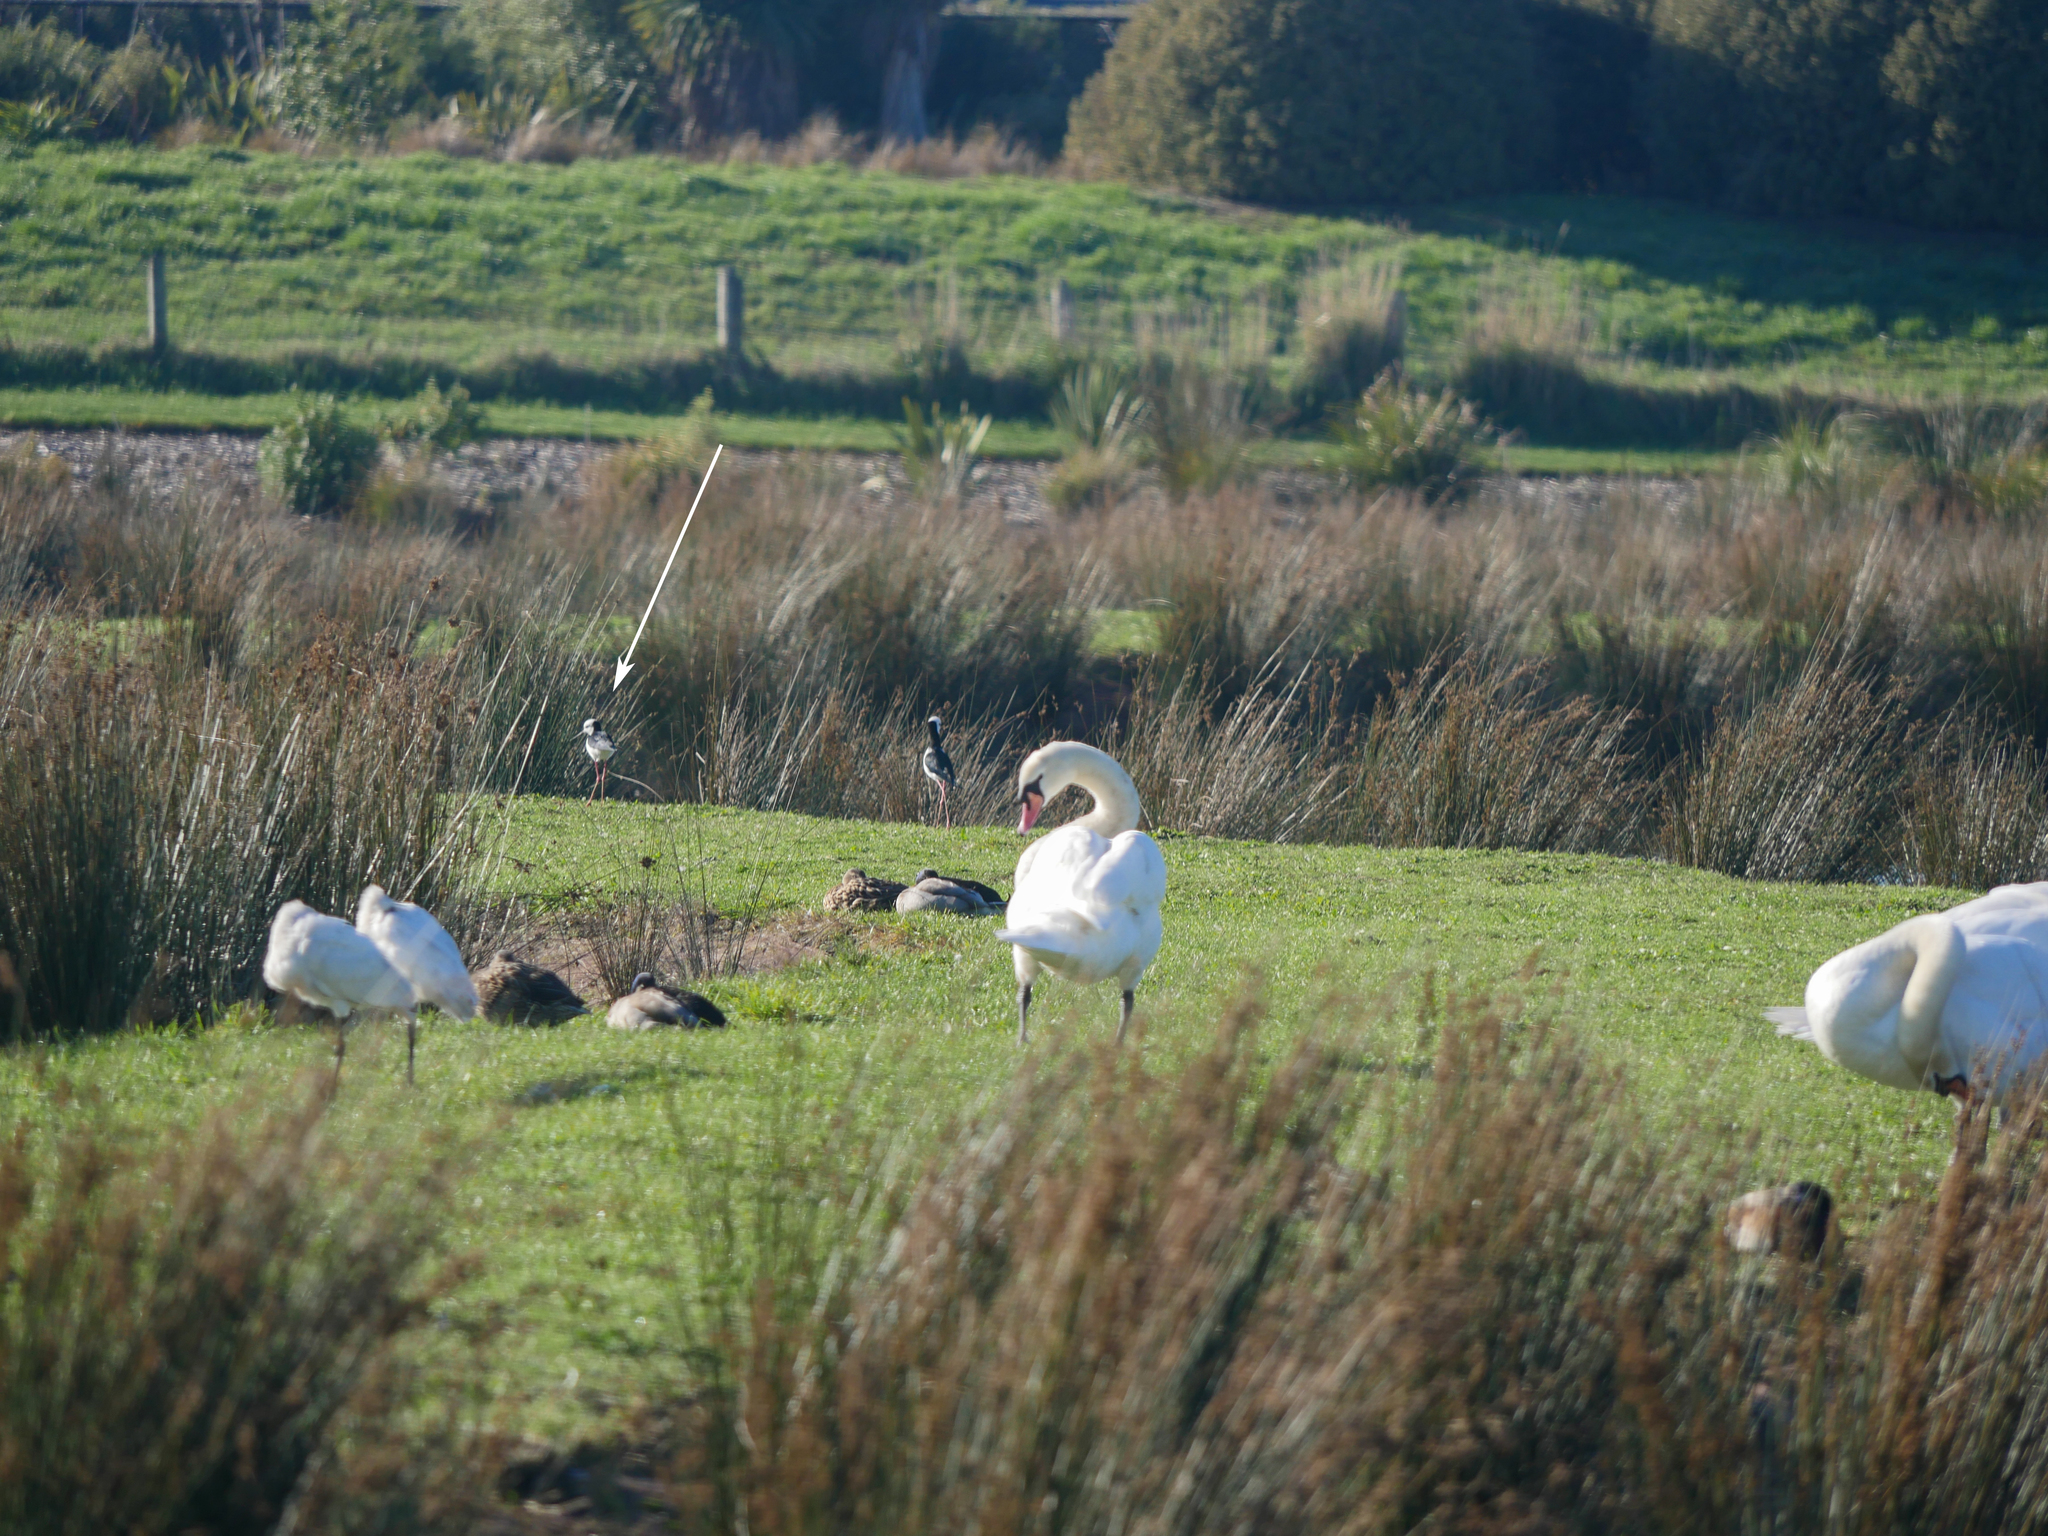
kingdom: Animalia
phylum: Chordata
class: Aves
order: Charadriiformes
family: Recurvirostridae
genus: Himantopus
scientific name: Himantopus leucocephalus
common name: White-headed stilt
